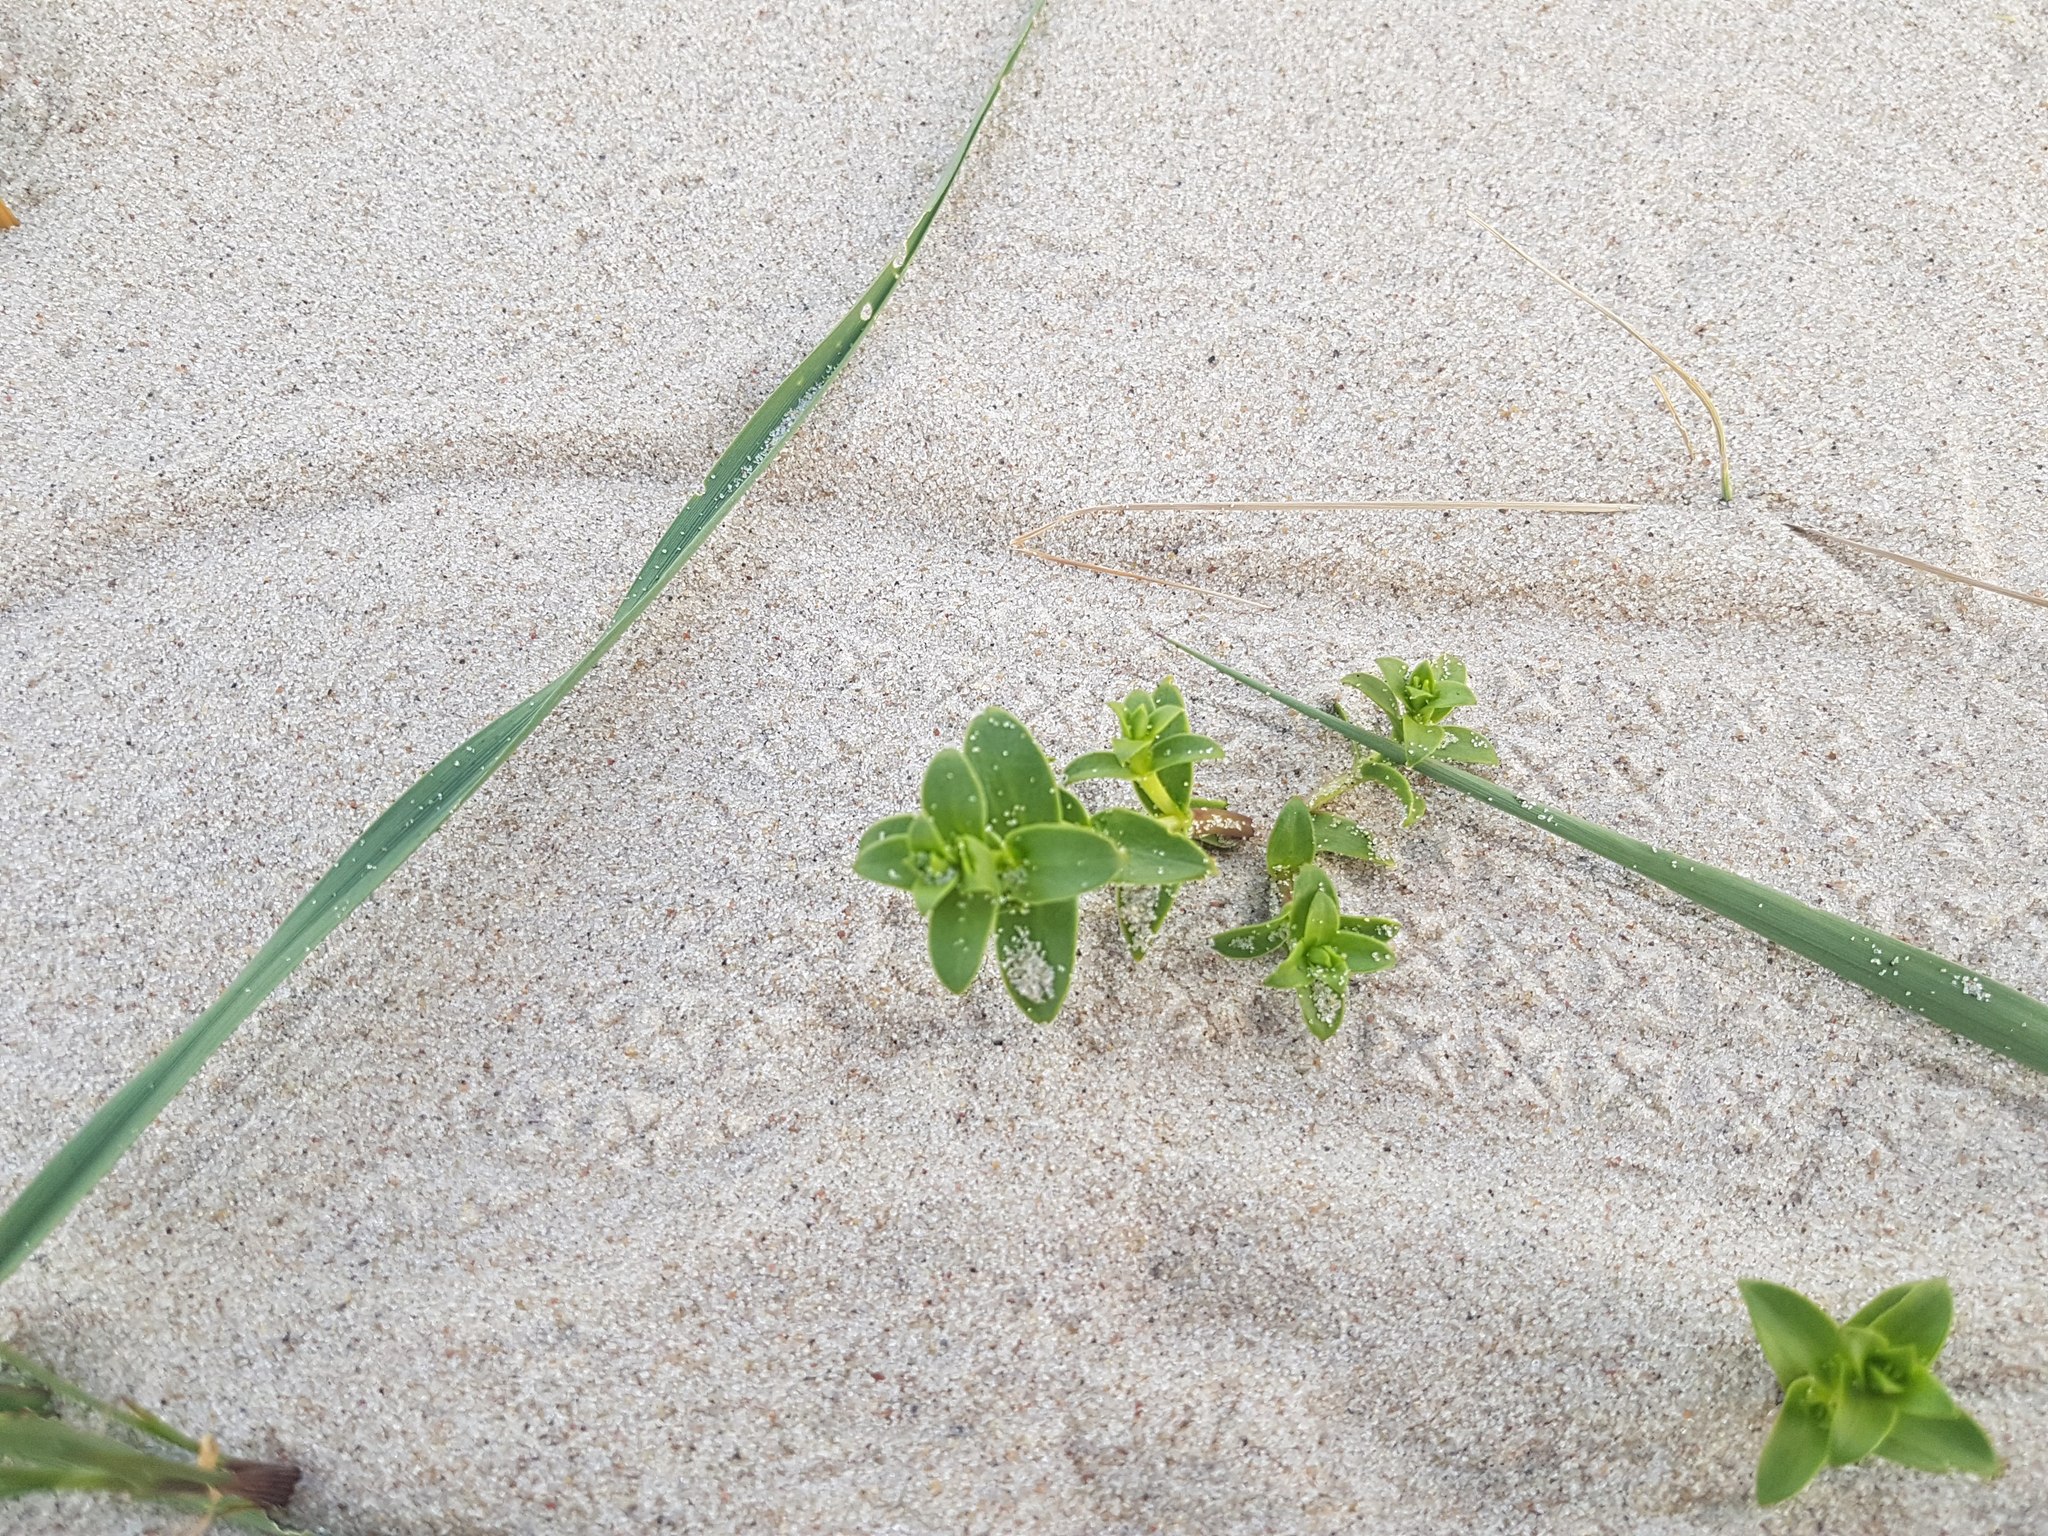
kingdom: Plantae
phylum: Tracheophyta
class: Magnoliopsida
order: Caryophyllales
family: Caryophyllaceae
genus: Honckenya
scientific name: Honckenya peploides
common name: Sea sandwort
